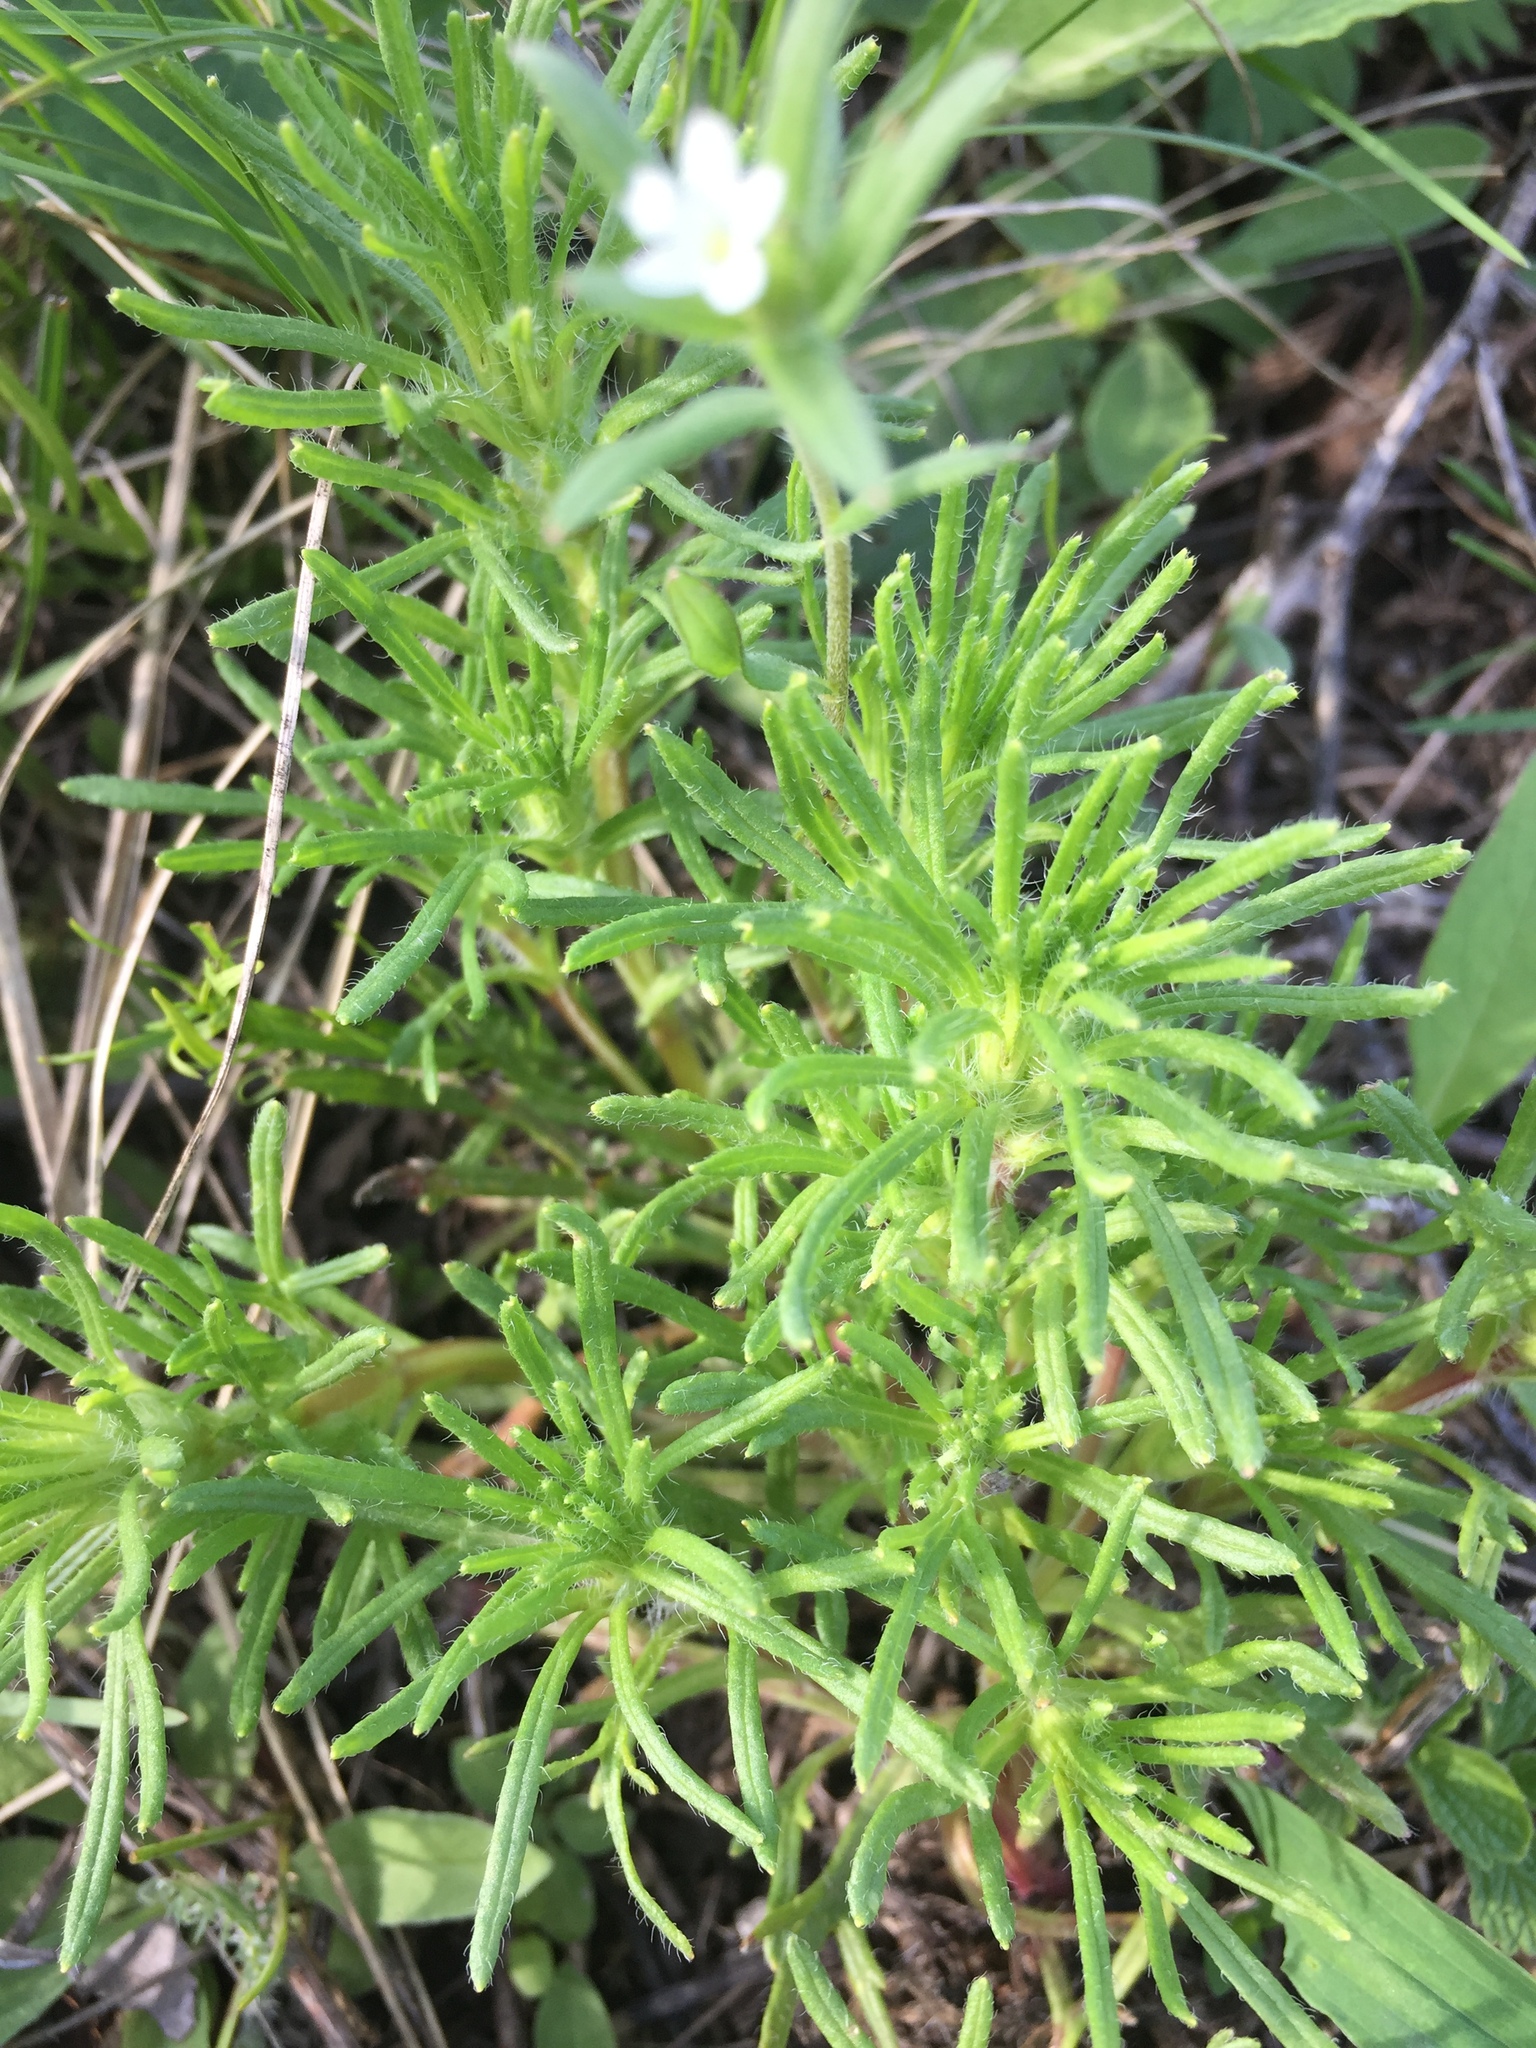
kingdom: Plantae
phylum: Tracheophyta
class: Magnoliopsida
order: Lamiales
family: Lamiaceae
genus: Ajuga
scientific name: Ajuga chamaepitys
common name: Ground-pine
